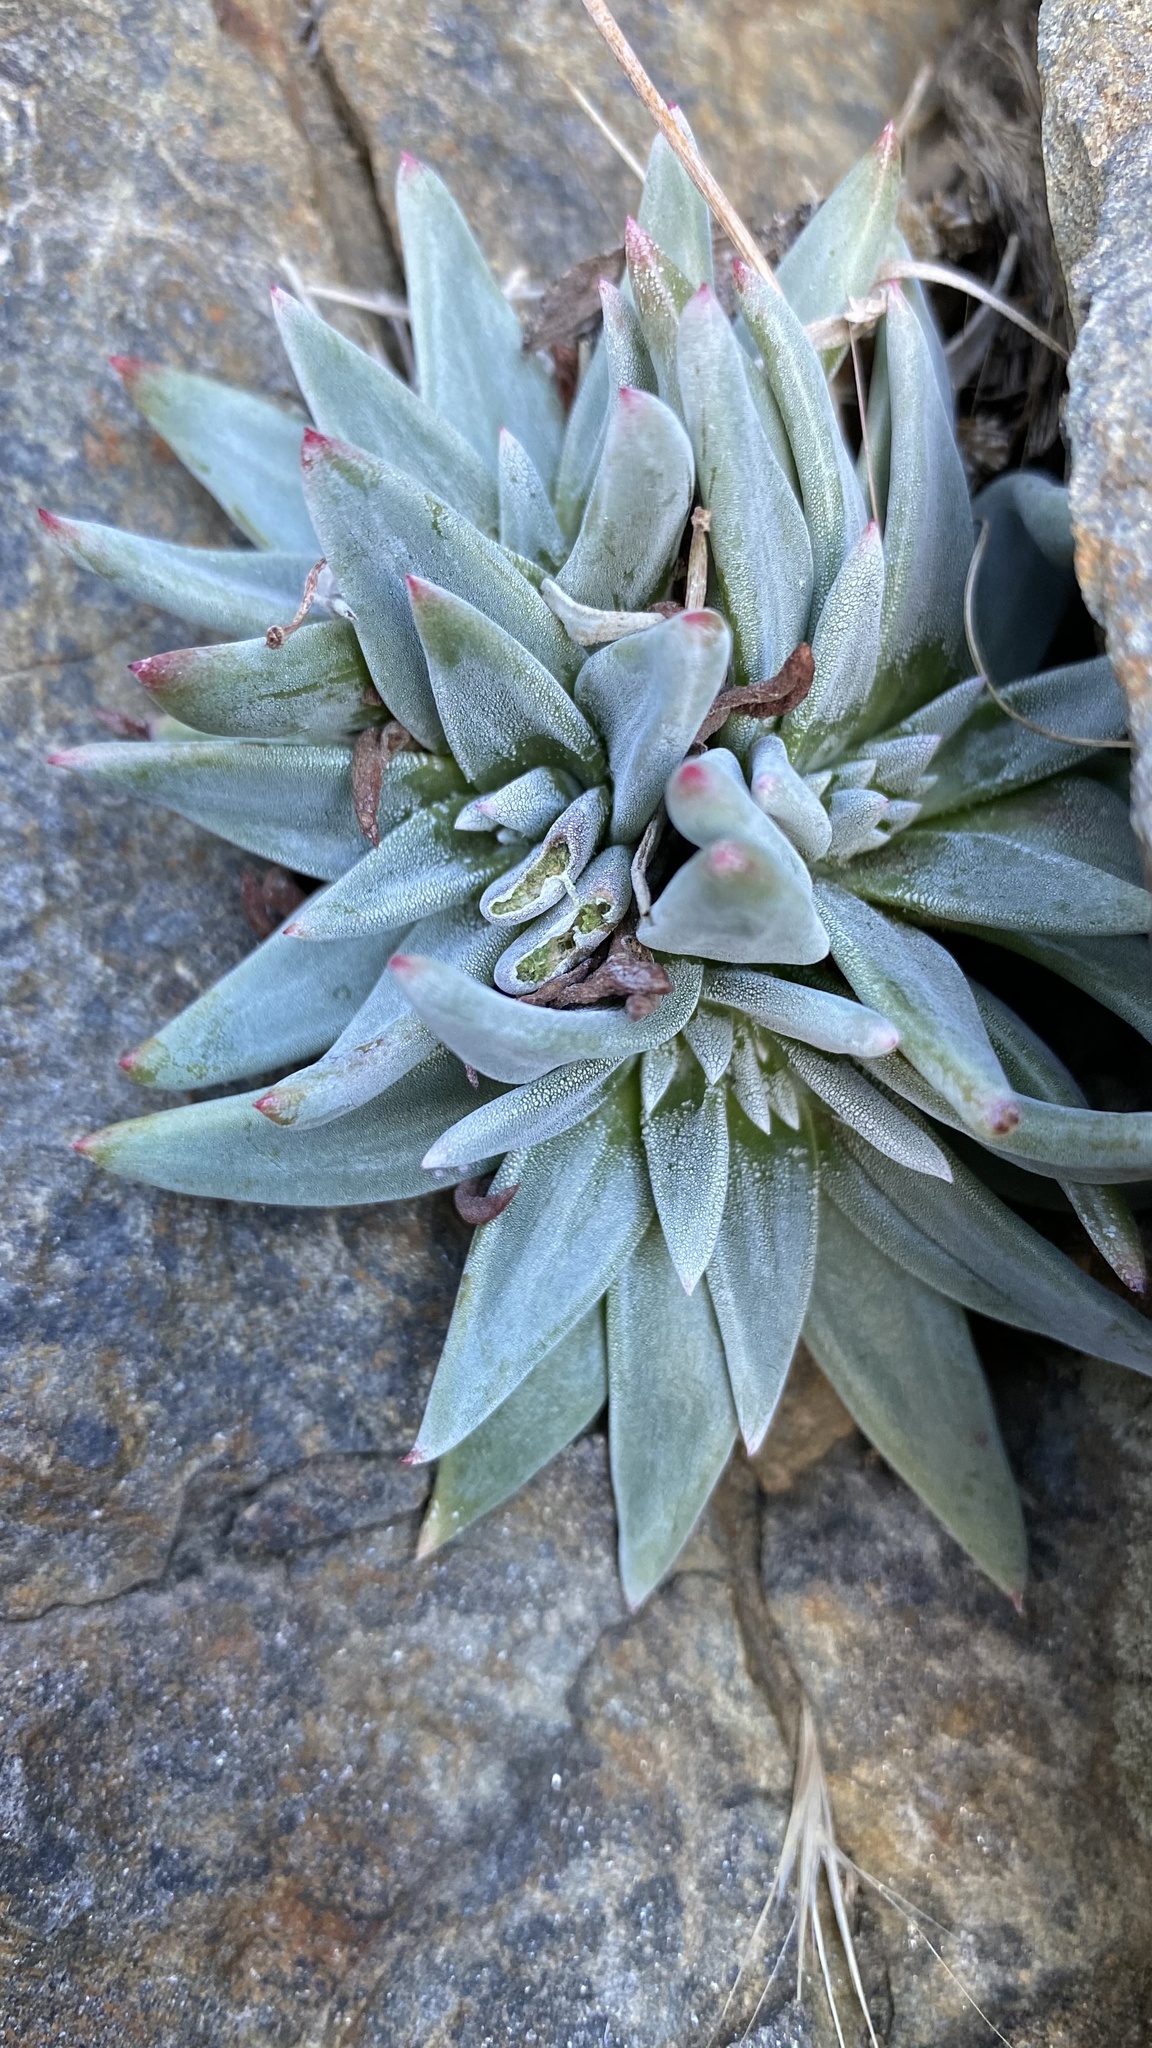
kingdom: Plantae
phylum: Tracheophyta
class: Magnoliopsida
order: Saxifragales
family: Crassulaceae
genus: Dudleya
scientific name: Dudleya abramsii
